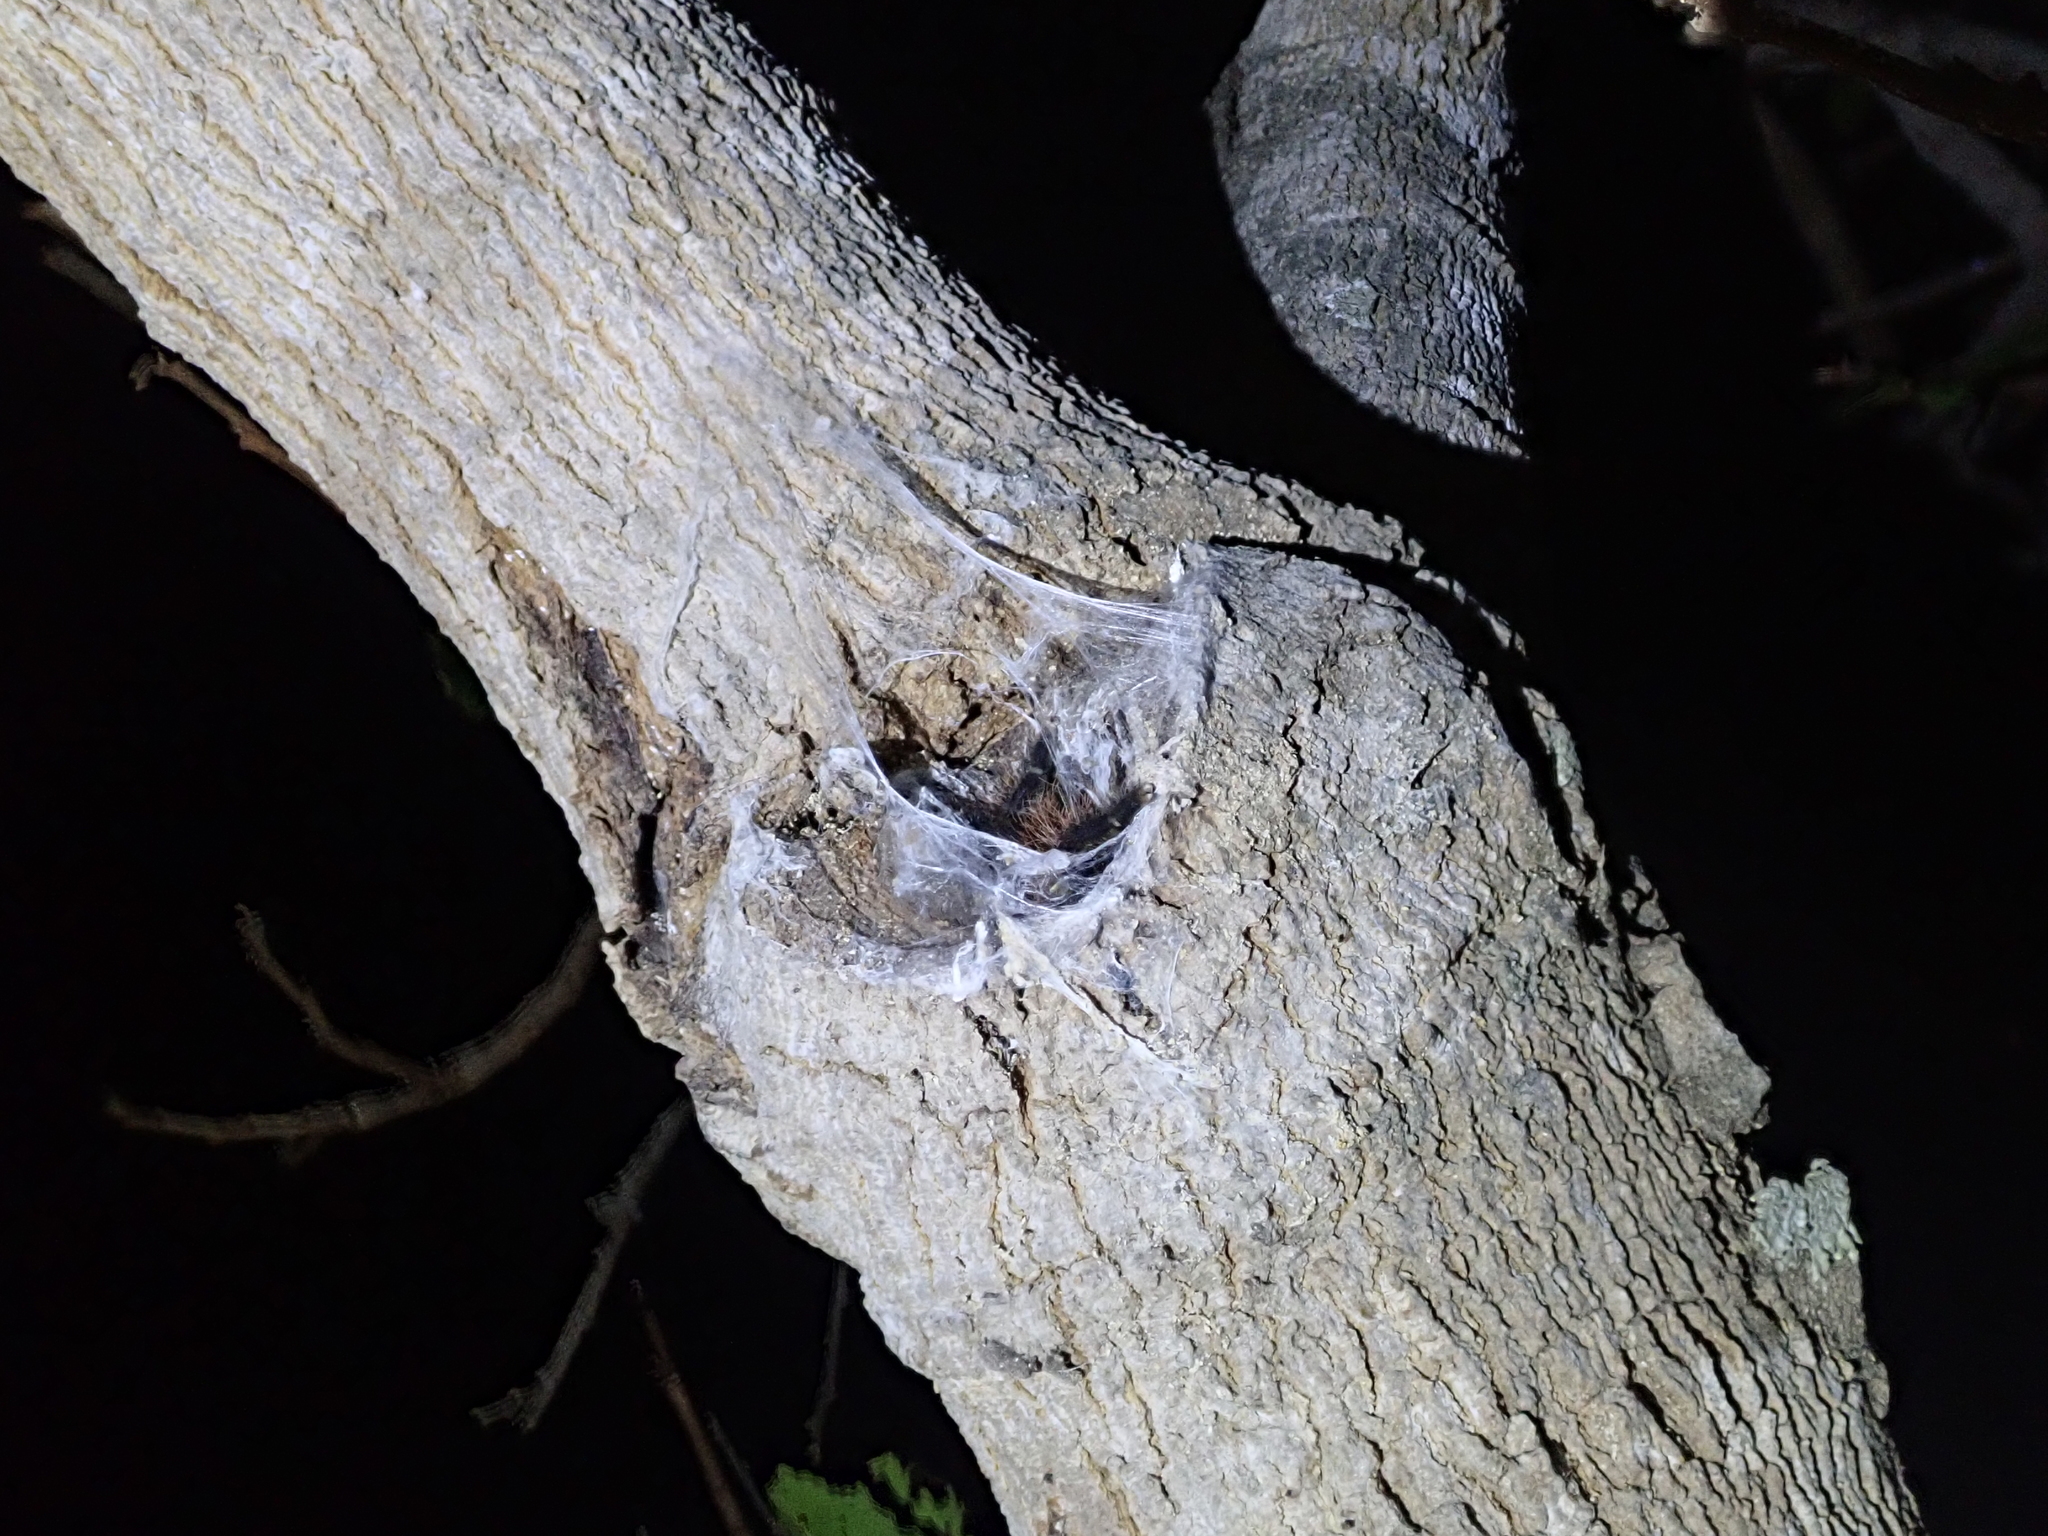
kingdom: Animalia
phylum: Arthropoda
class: Arachnida
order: Araneae
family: Theraphosidae
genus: Avicularia
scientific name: Avicularia taunayi
